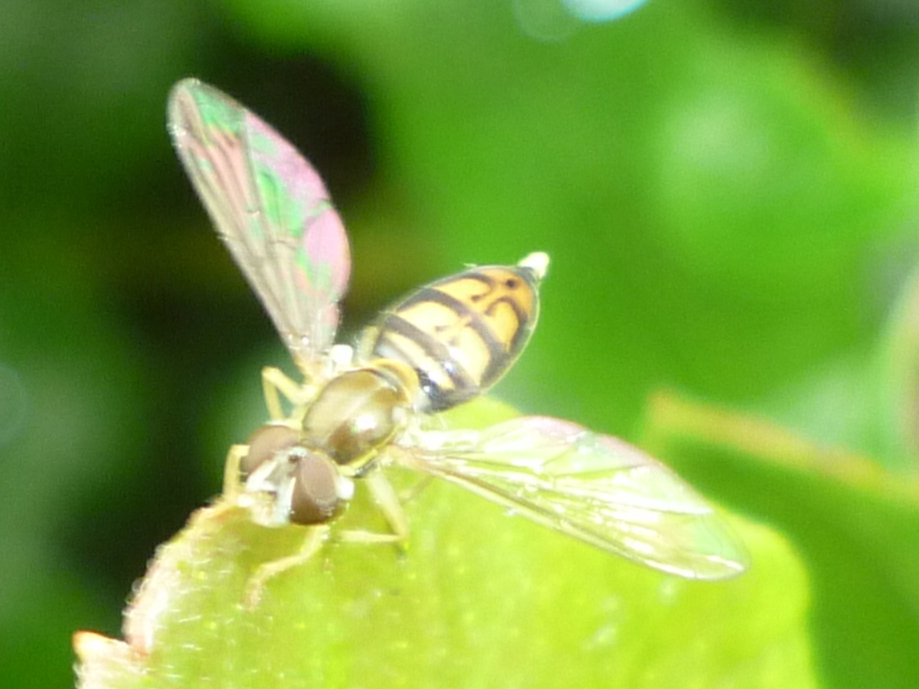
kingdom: Animalia
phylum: Arthropoda
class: Insecta
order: Diptera
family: Syrphidae
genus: Toxomerus
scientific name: Toxomerus marginatus
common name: Syrphid fly
